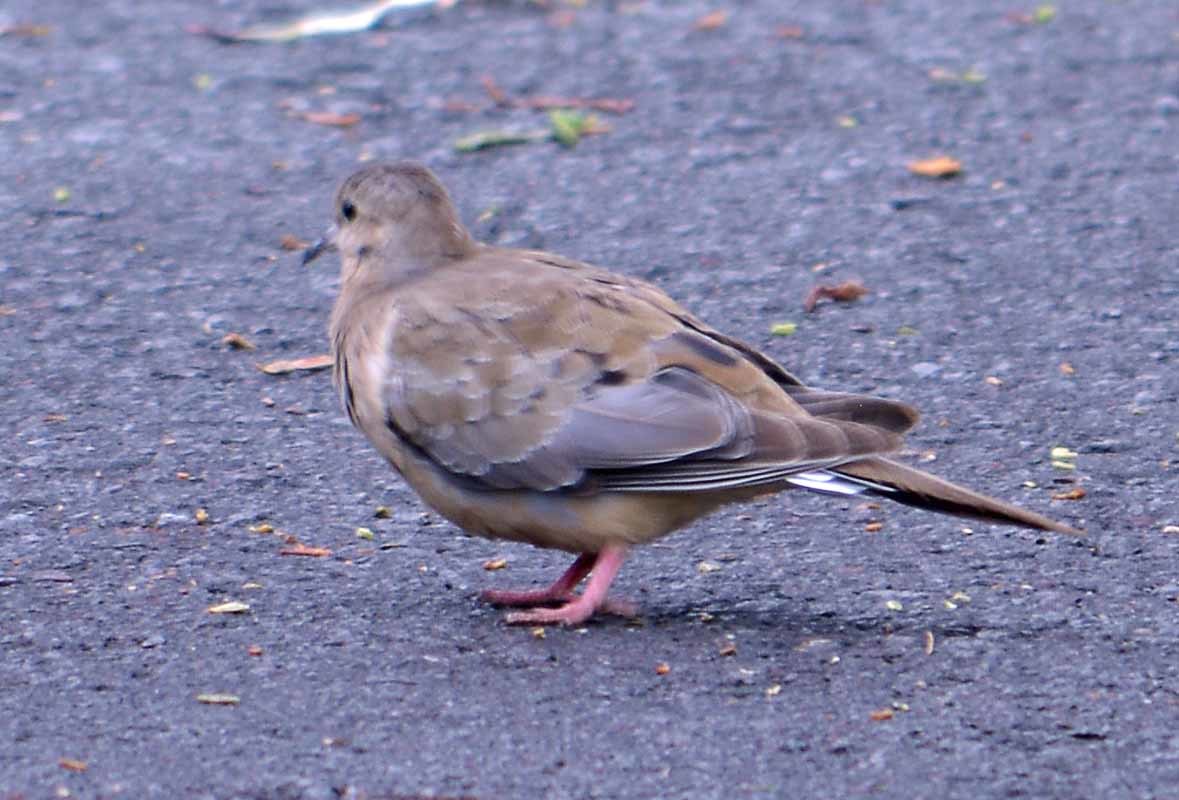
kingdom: Animalia
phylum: Chordata
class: Aves
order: Columbiformes
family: Columbidae
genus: Zenaida
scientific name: Zenaida macroura
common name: Mourning dove
